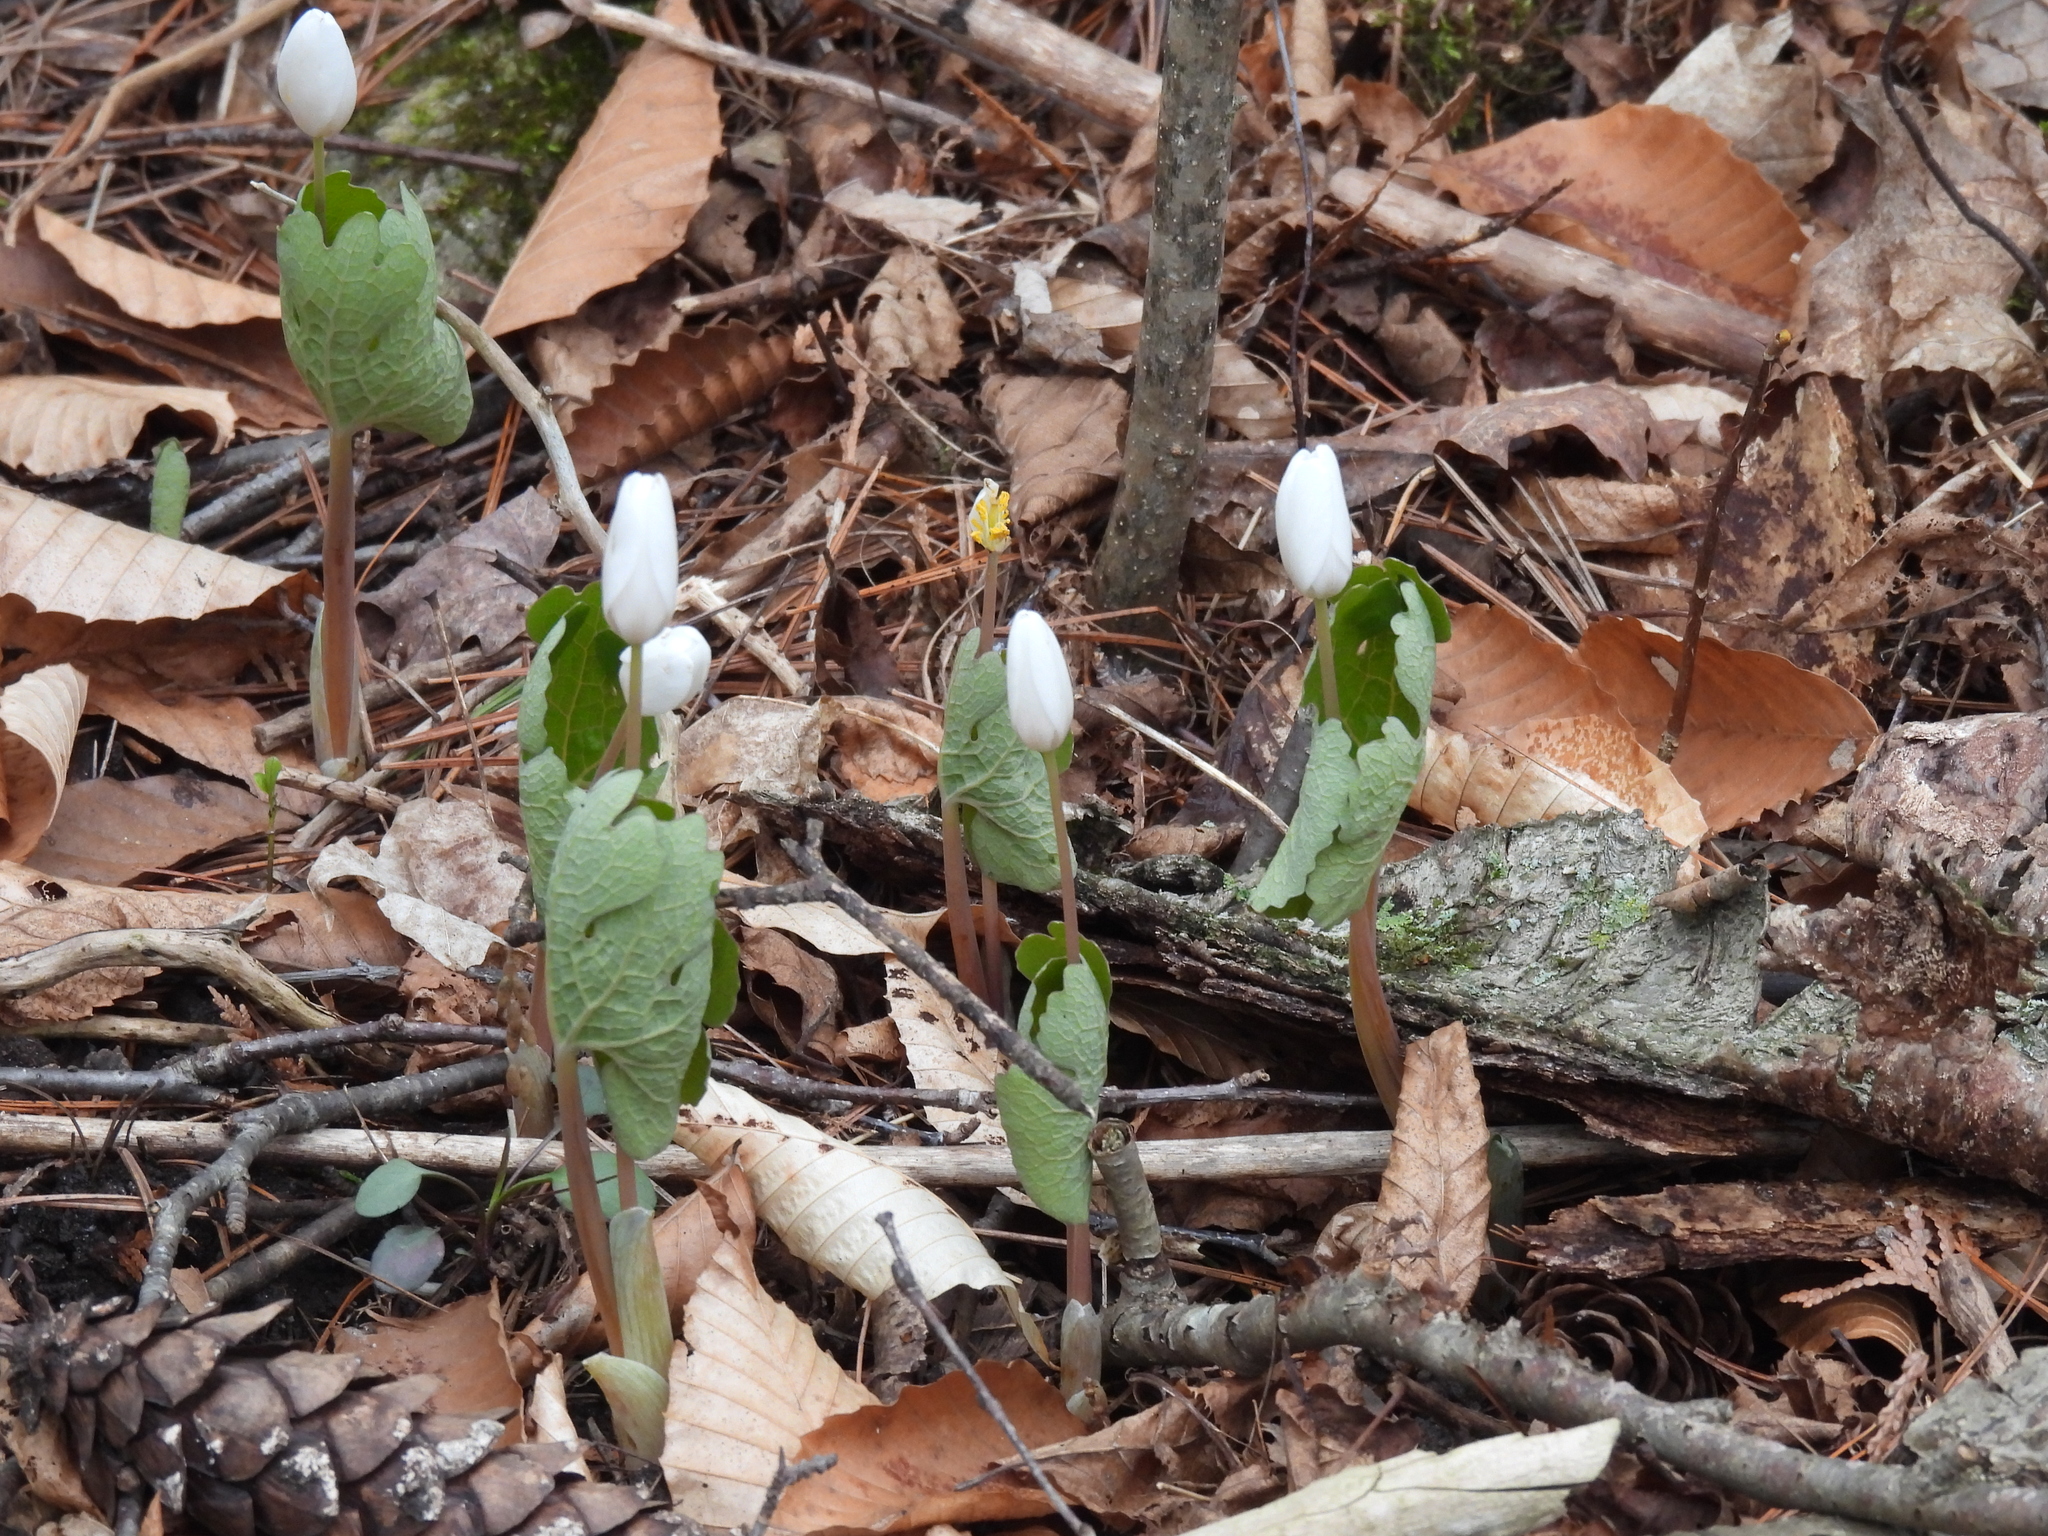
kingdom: Plantae
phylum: Tracheophyta
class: Magnoliopsida
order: Ranunculales
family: Papaveraceae
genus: Sanguinaria
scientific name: Sanguinaria canadensis
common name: Bloodroot
